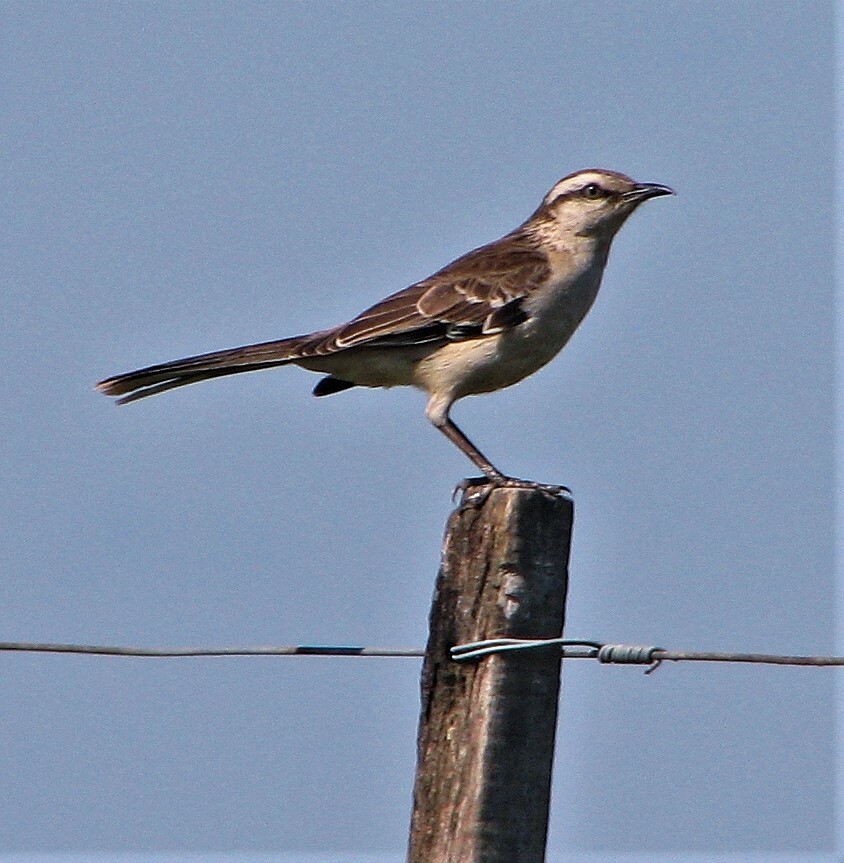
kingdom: Animalia
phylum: Chordata
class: Aves
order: Passeriformes
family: Mimidae
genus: Mimus
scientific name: Mimus saturninus
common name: Chalk-browed mockingbird
